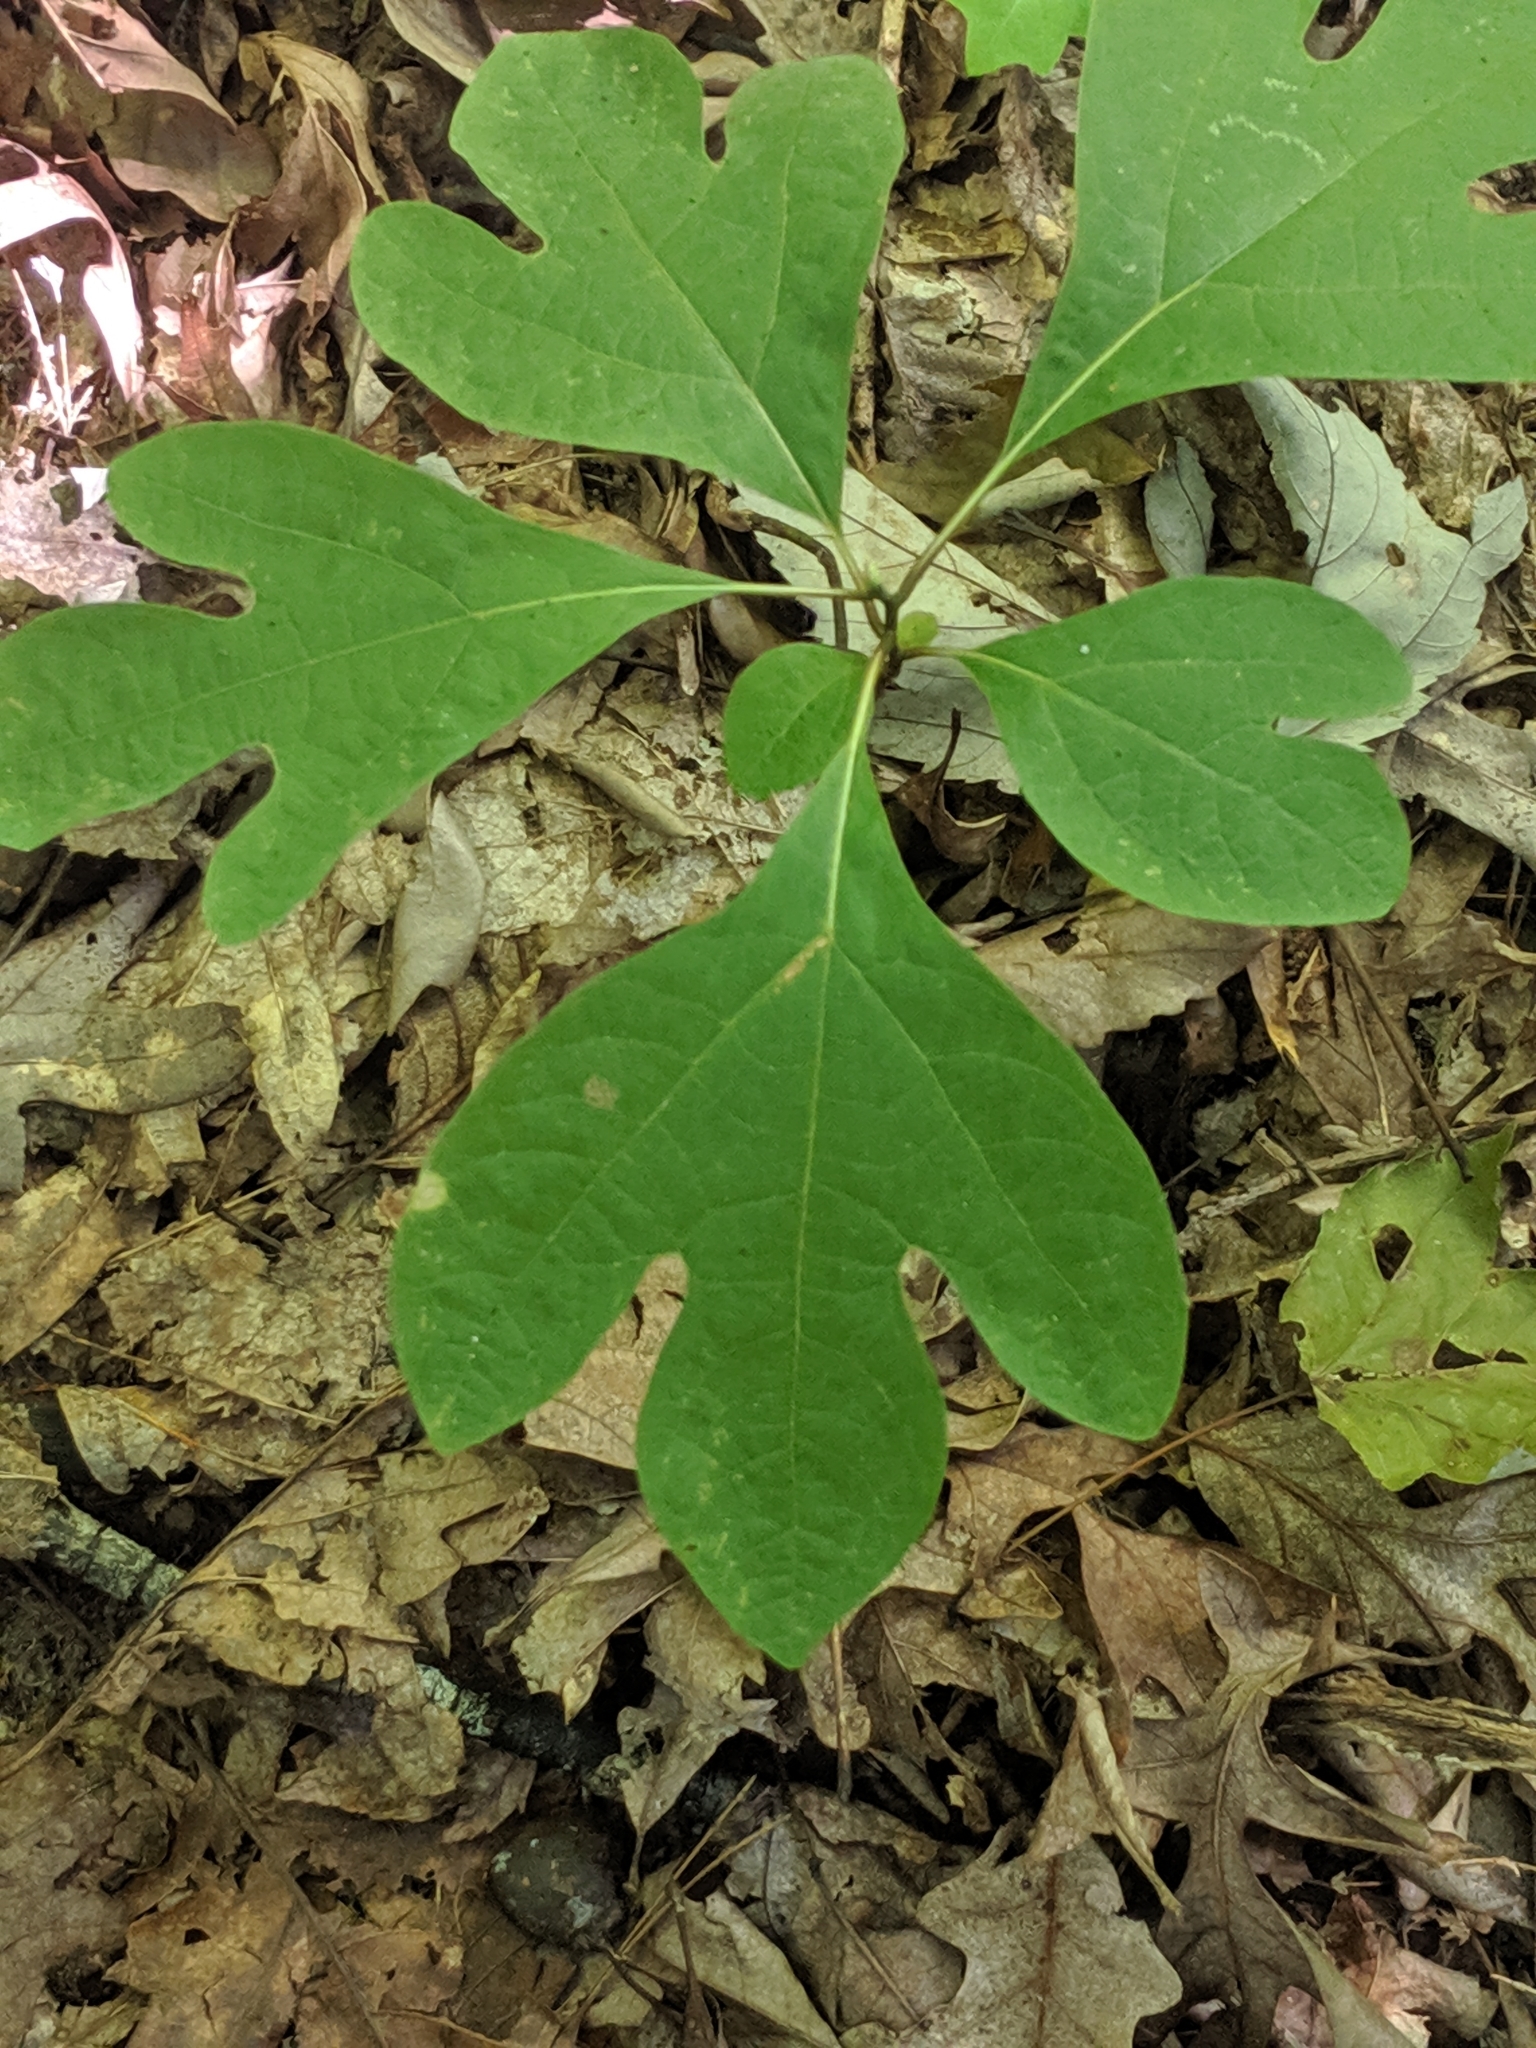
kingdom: Plantae
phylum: Tracheophyta
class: Magnoliopsida
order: Laurales
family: Lauraceae
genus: Sassafras
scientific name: Sassafras albidum
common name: Sassafras
